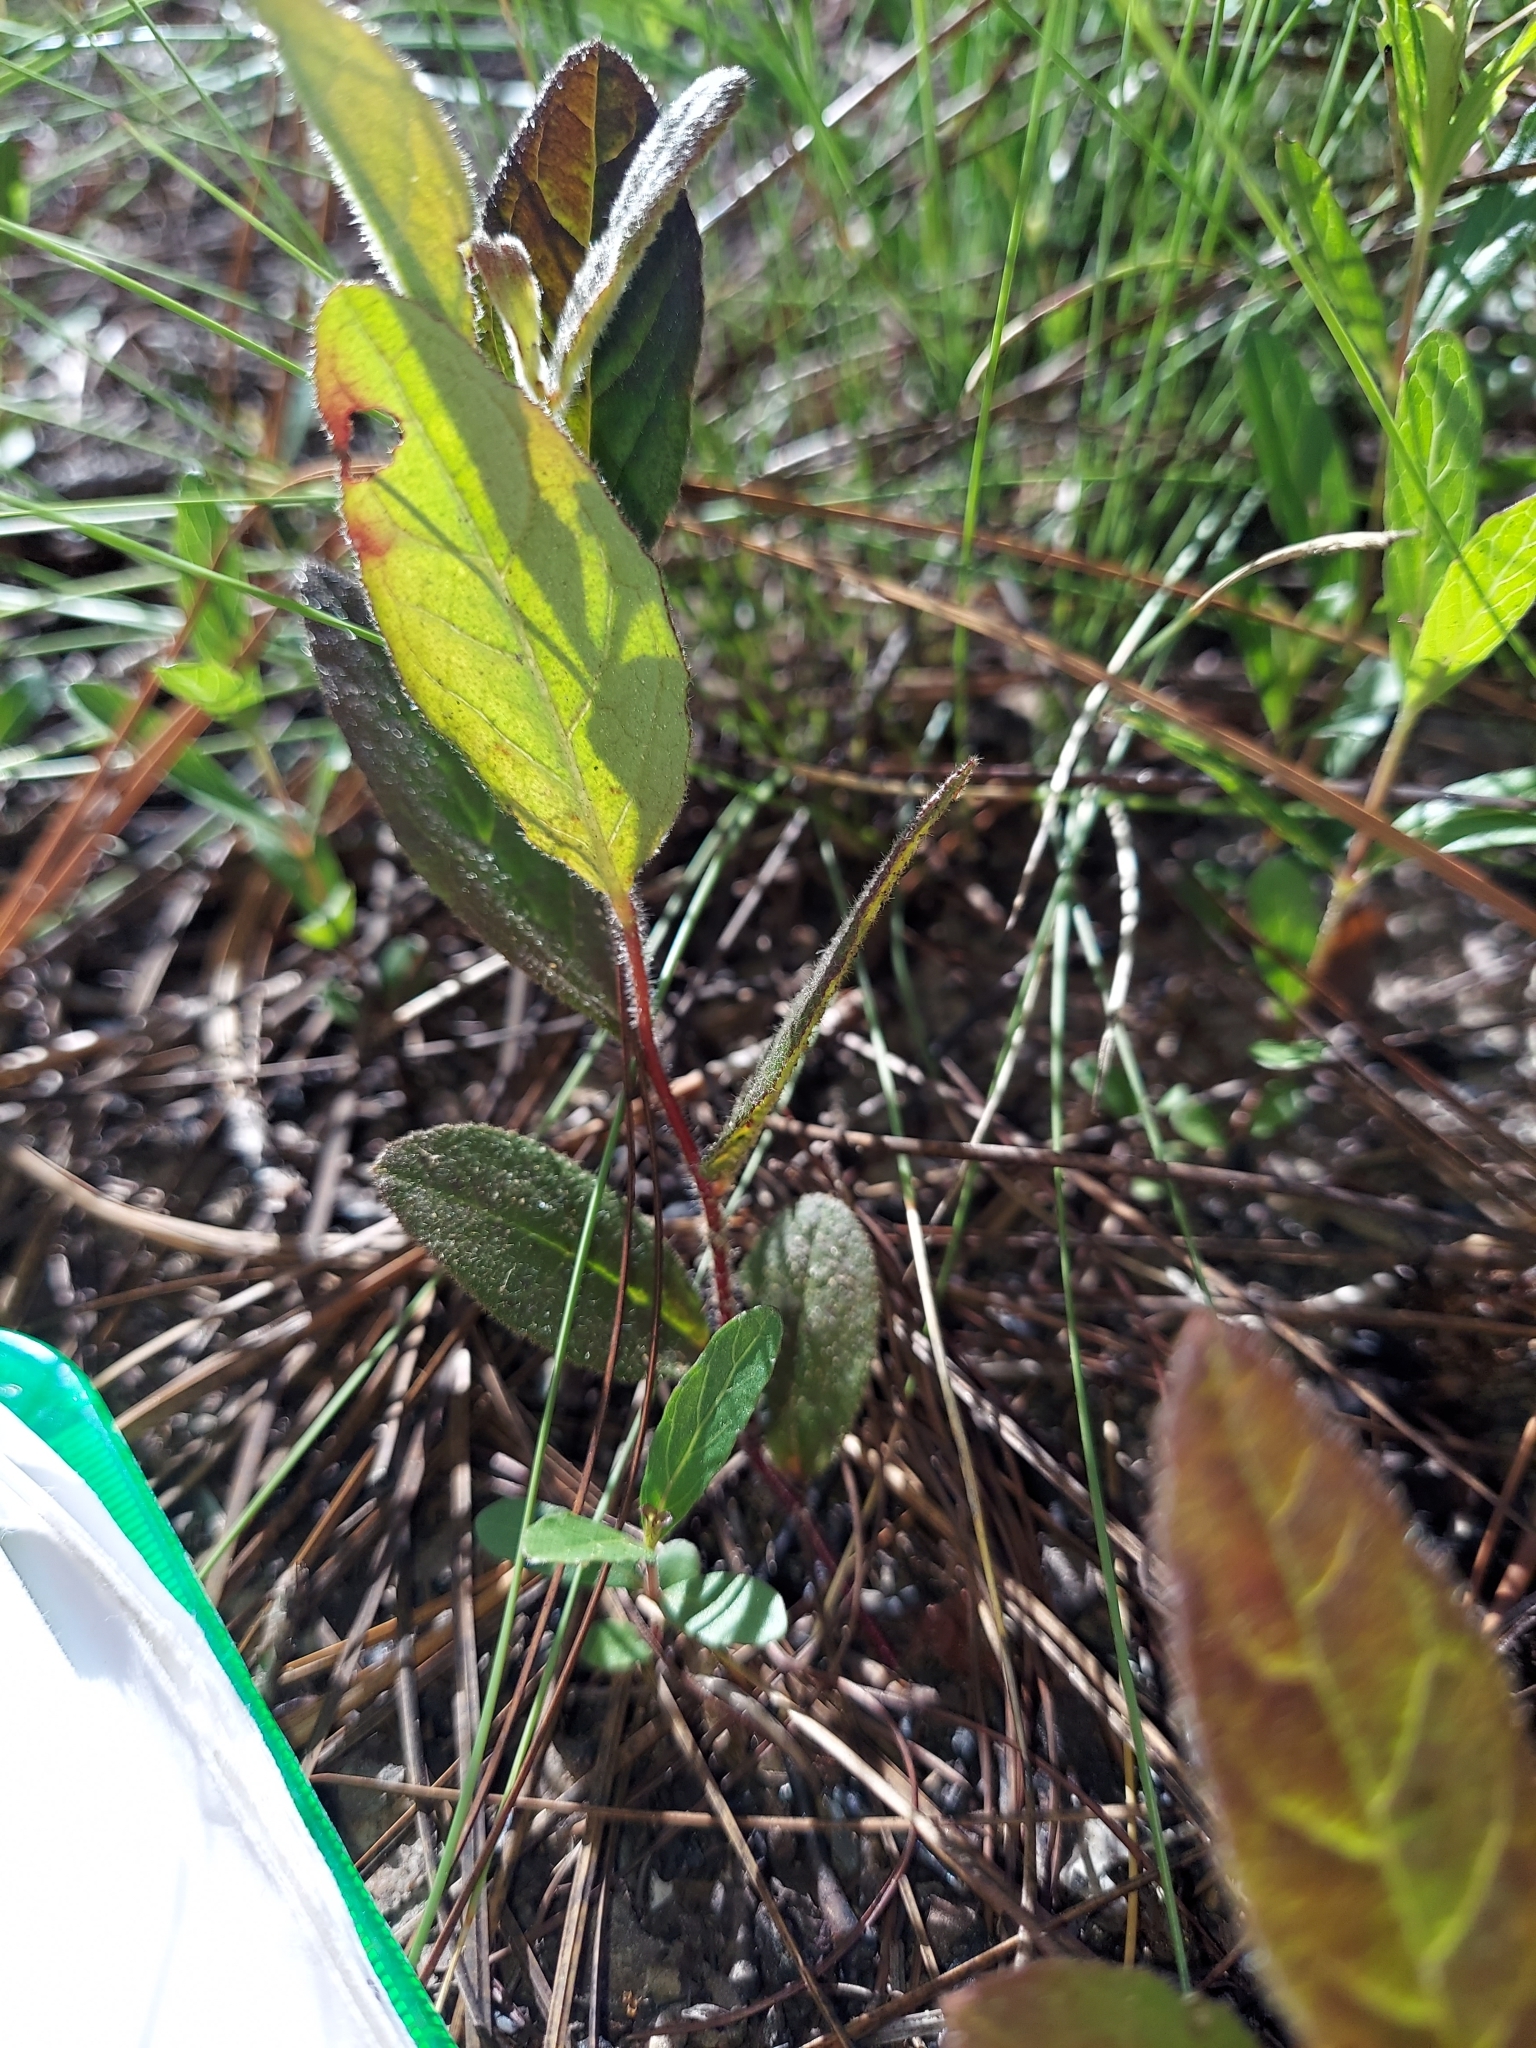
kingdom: Plantae
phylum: Tracheophyta
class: Magnoliopsida
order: Malvales
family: Cistaceae
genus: Crocanthemum
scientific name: Crocanthemum carolinianum
